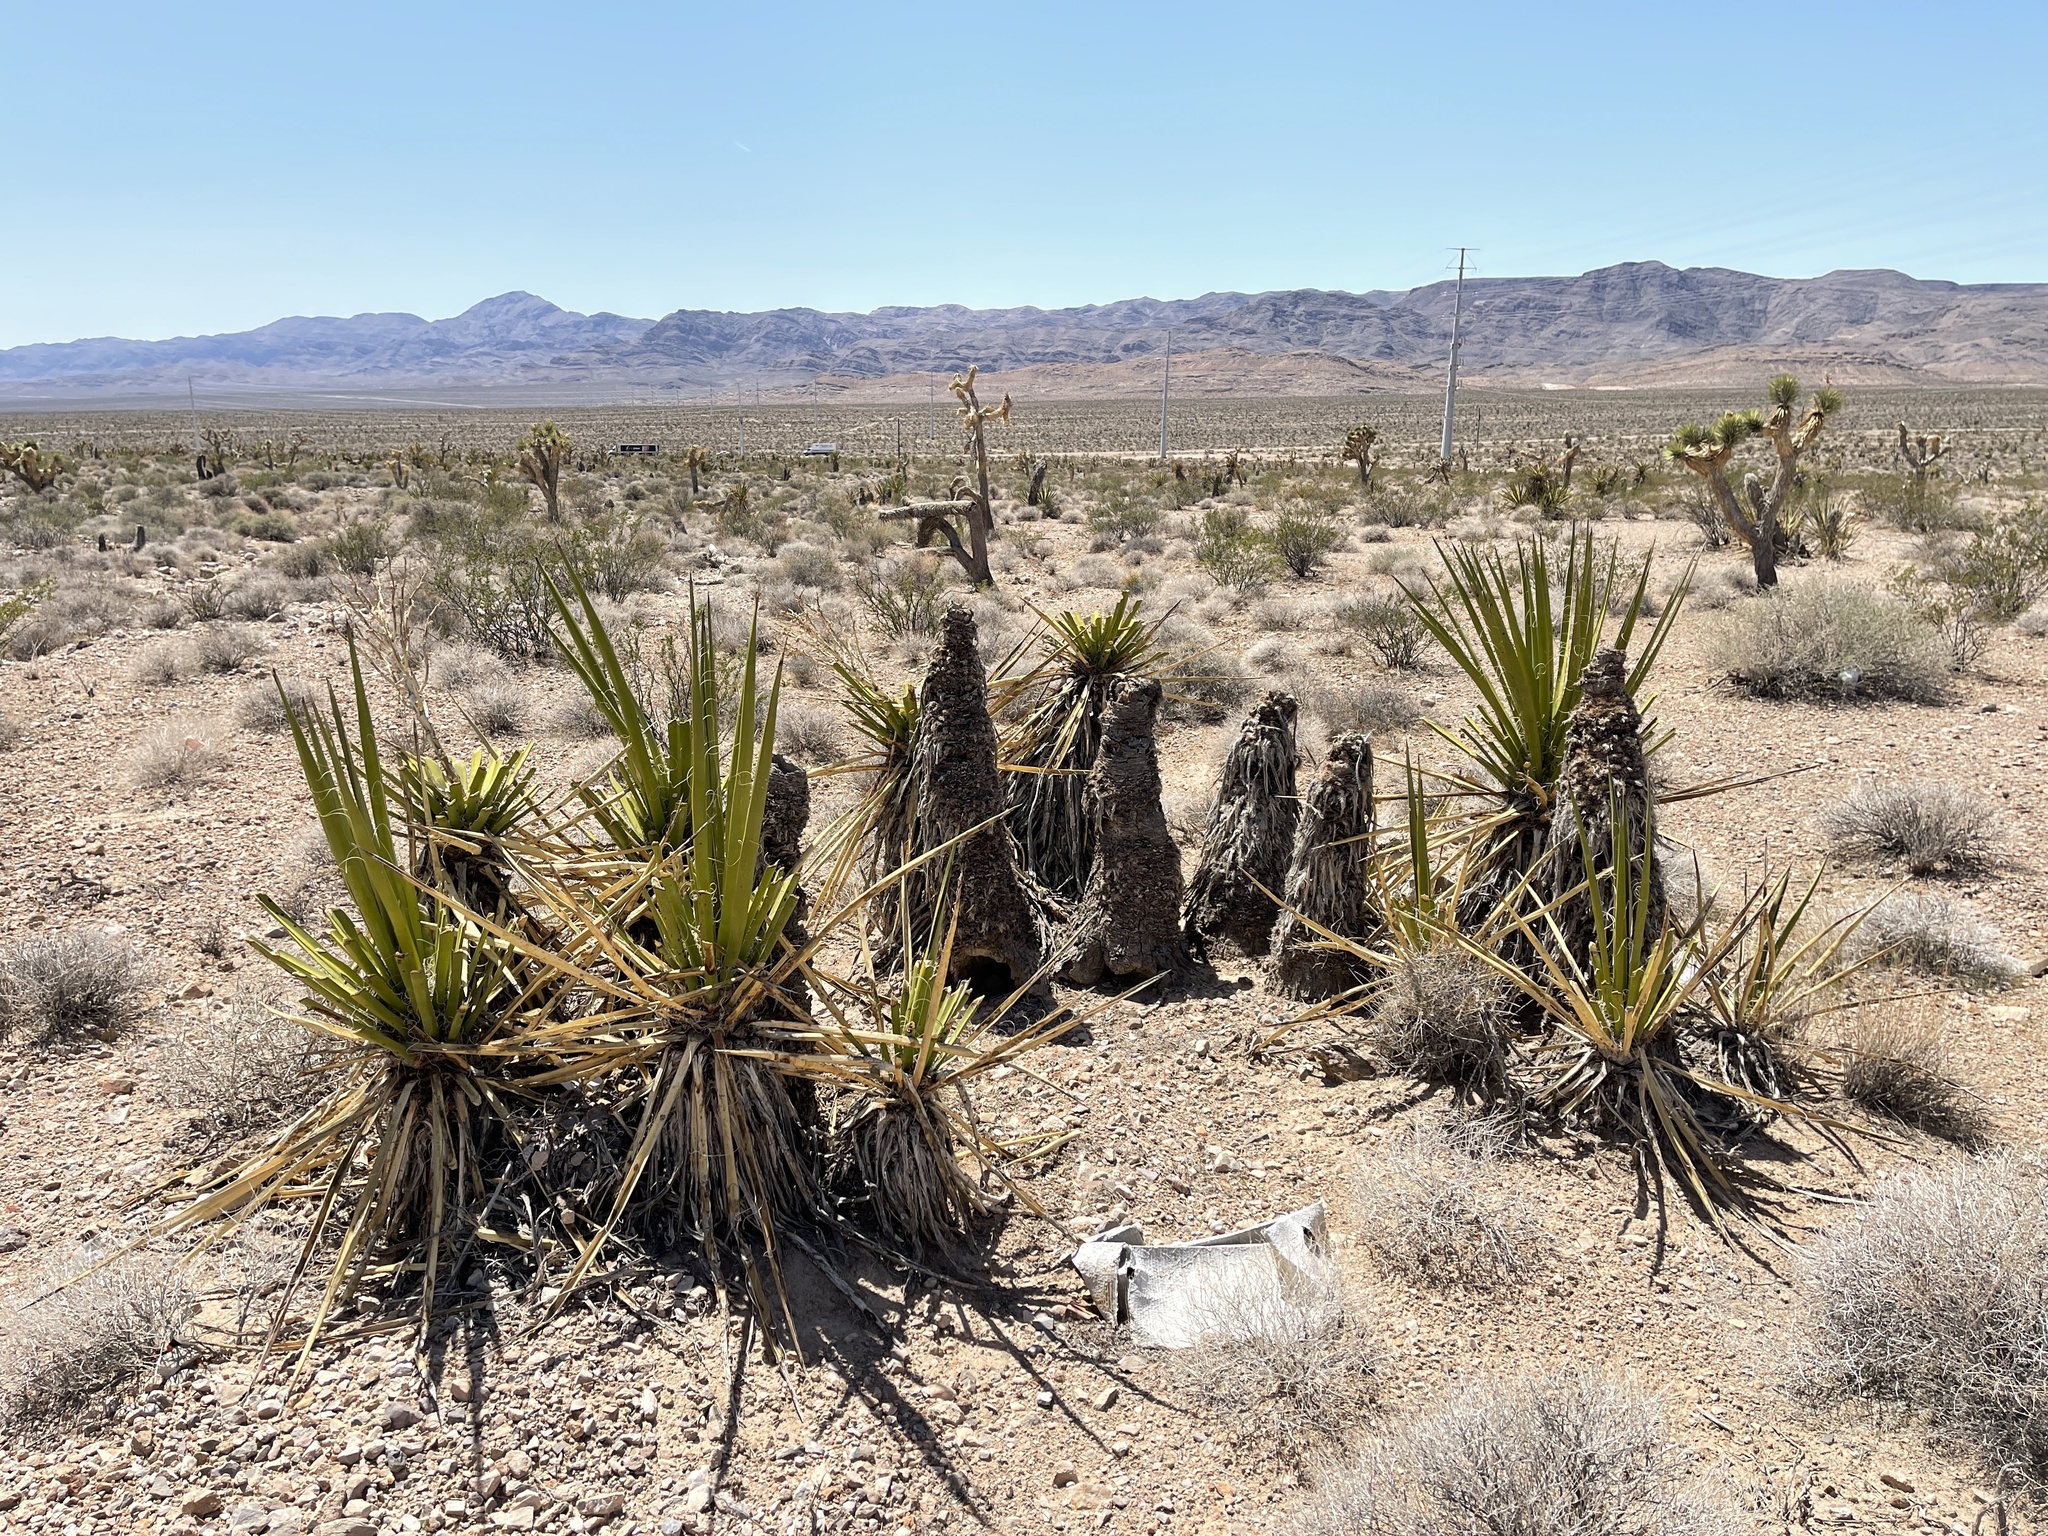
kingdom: Plantae
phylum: Tracheophyta
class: Liliopsida
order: Asparagales
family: Asparagaceae
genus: Yucca
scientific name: Yucca schidigera
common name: Mojave yucca
